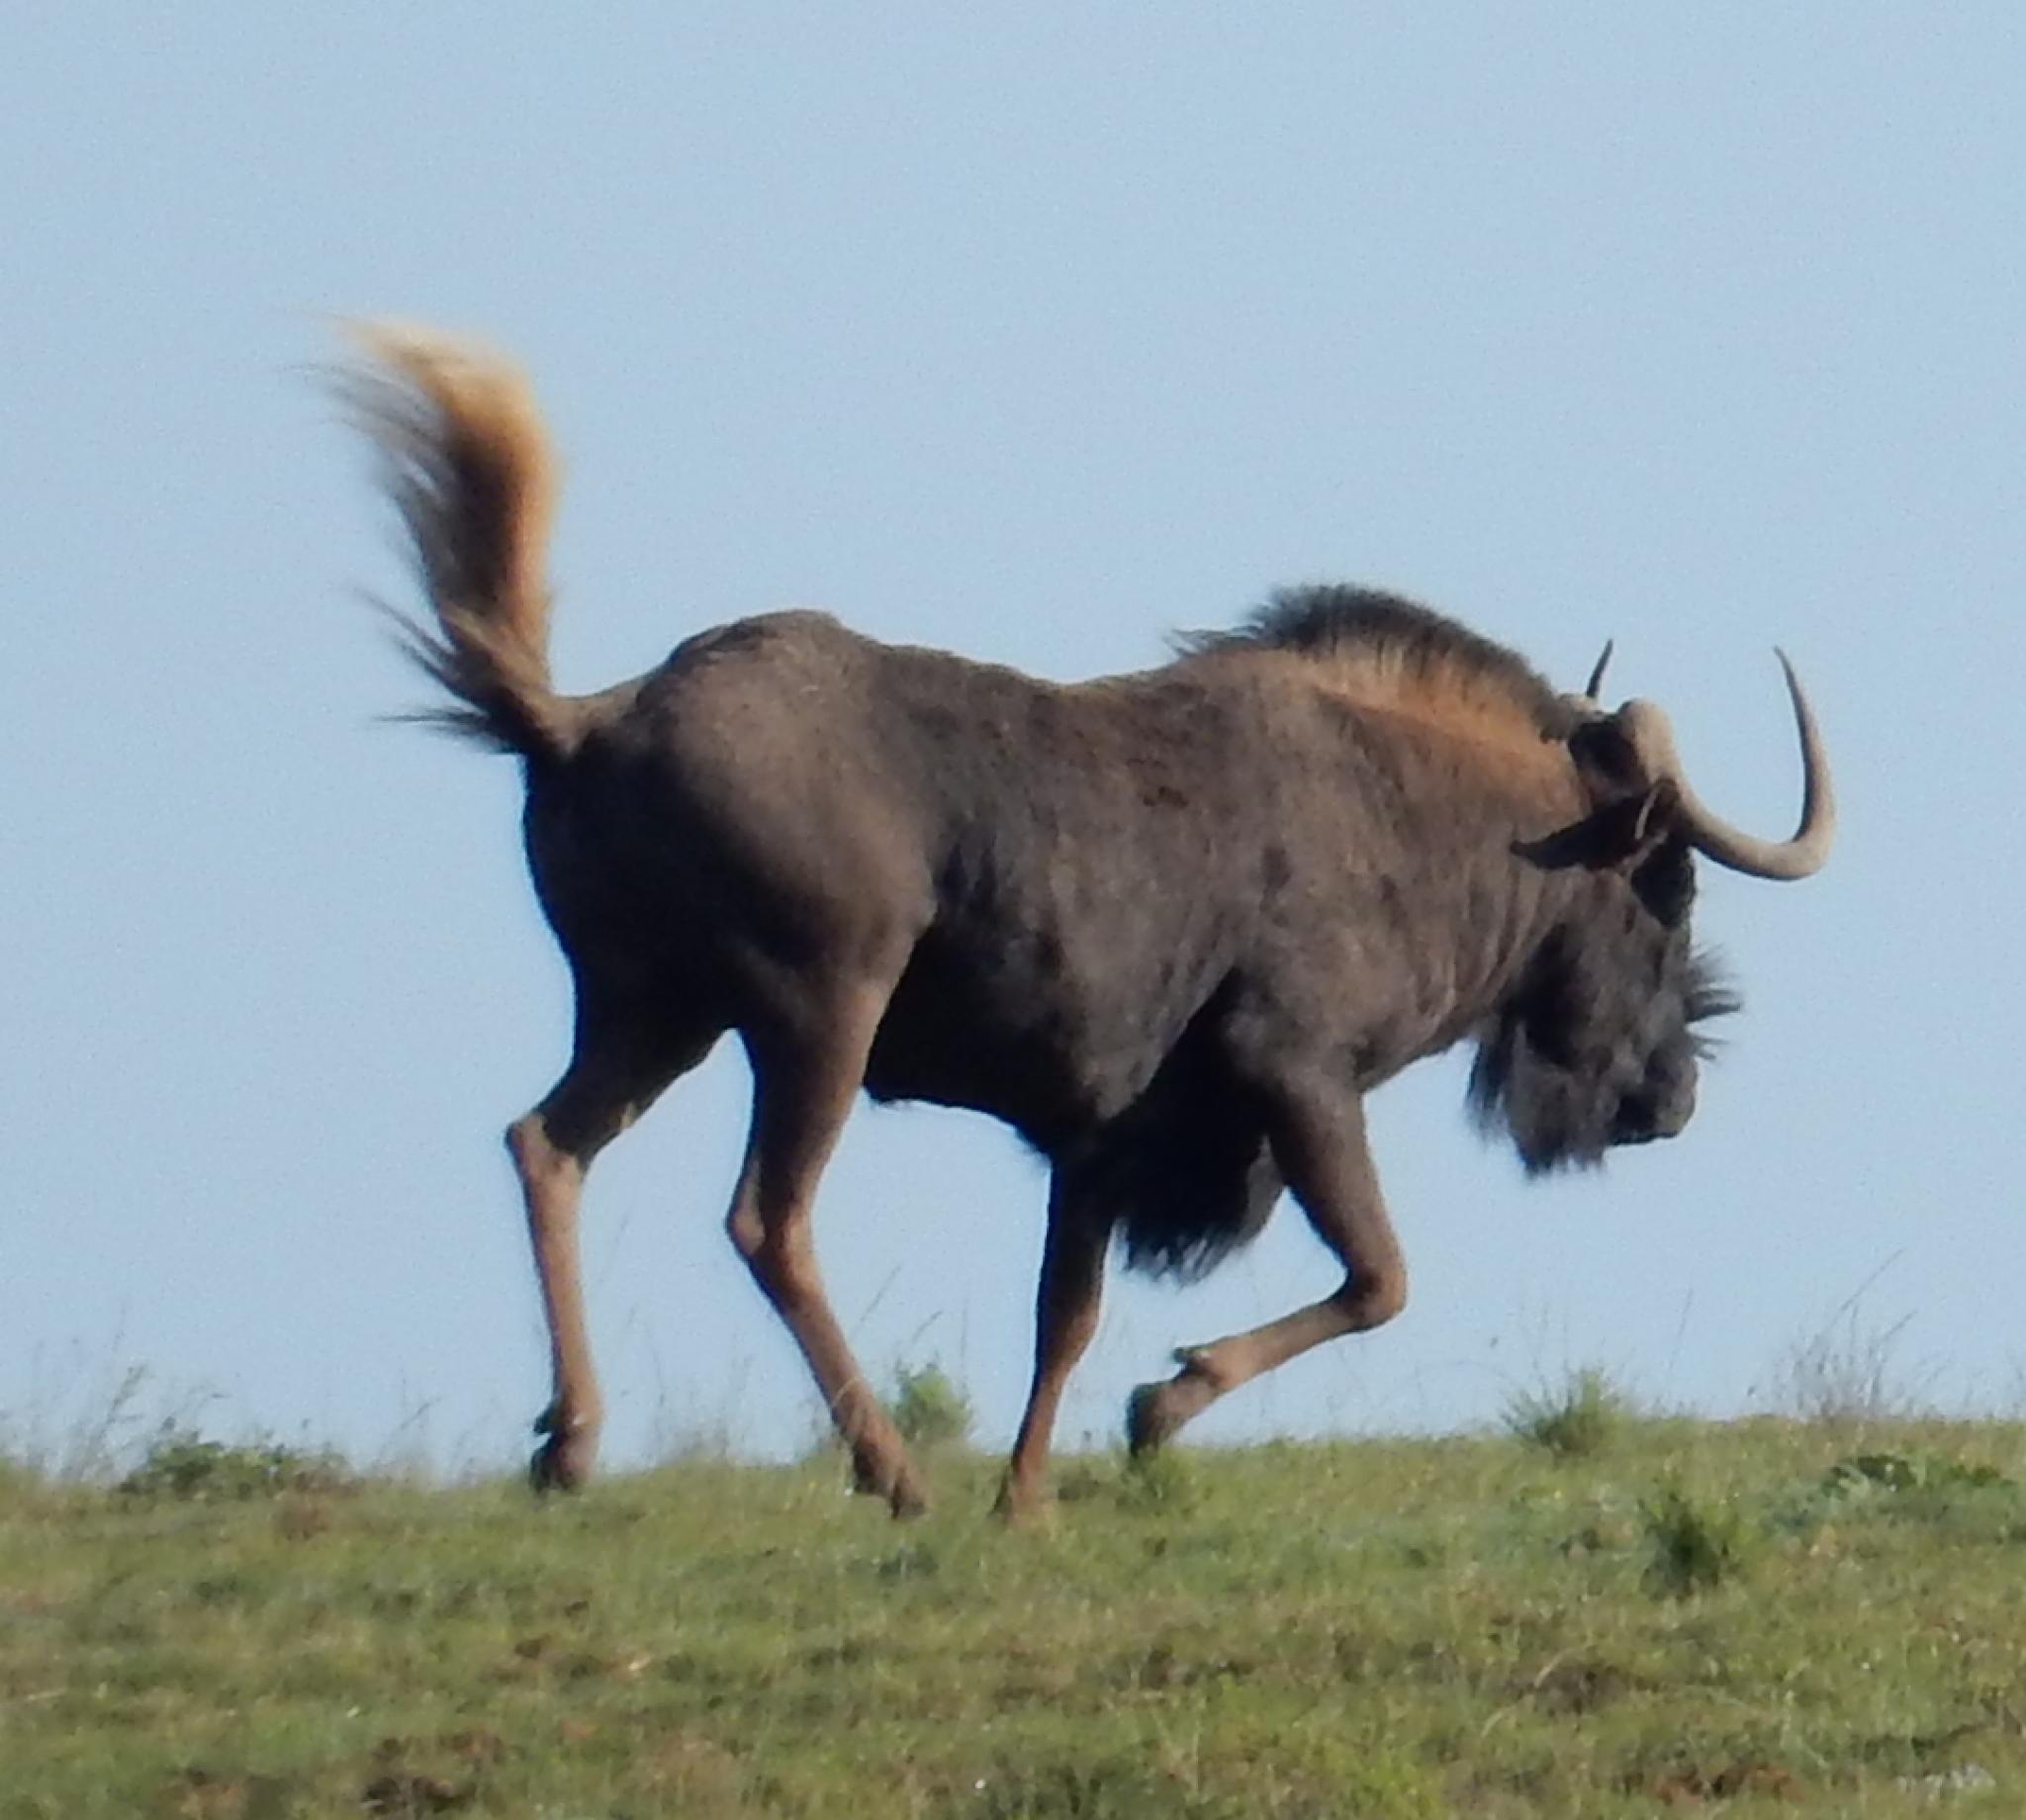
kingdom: Animalia
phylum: Chordata
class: Mammalia
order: Artiodactyla
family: Bovidae
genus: Connochaetes
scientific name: Connochaetes gnou
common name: Black wildebeest
